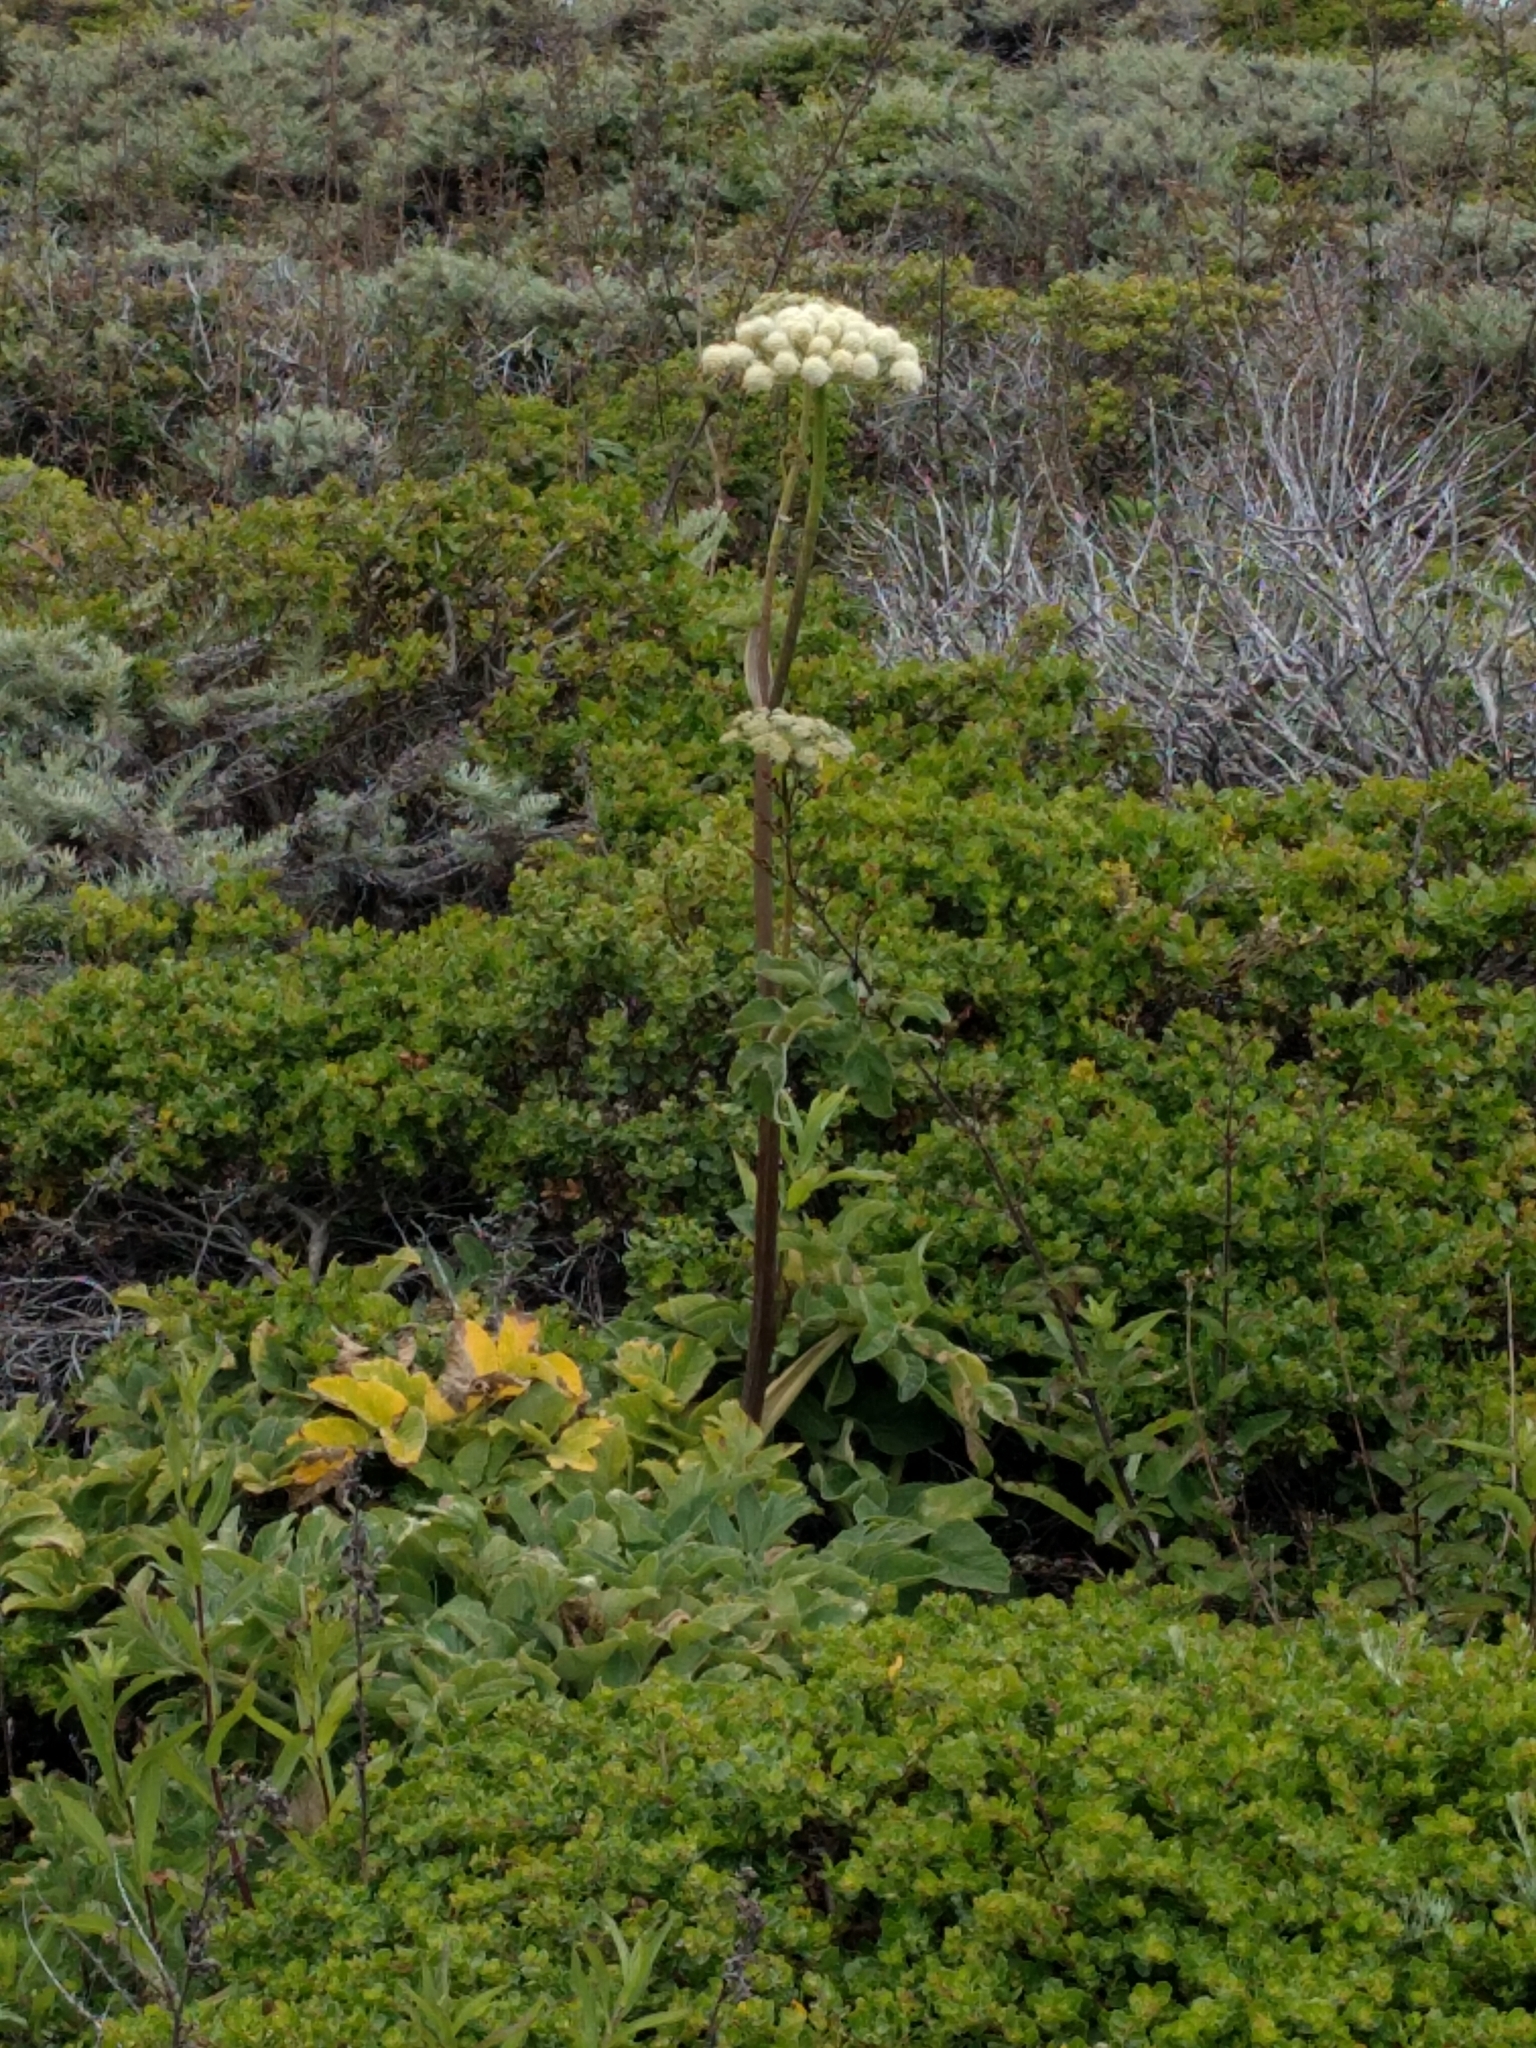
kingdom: Plantae
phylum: Tracheophyta
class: Magnoliopsida
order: Apiales
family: Apiaceae
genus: Angelica
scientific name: Angelica hendersonii
